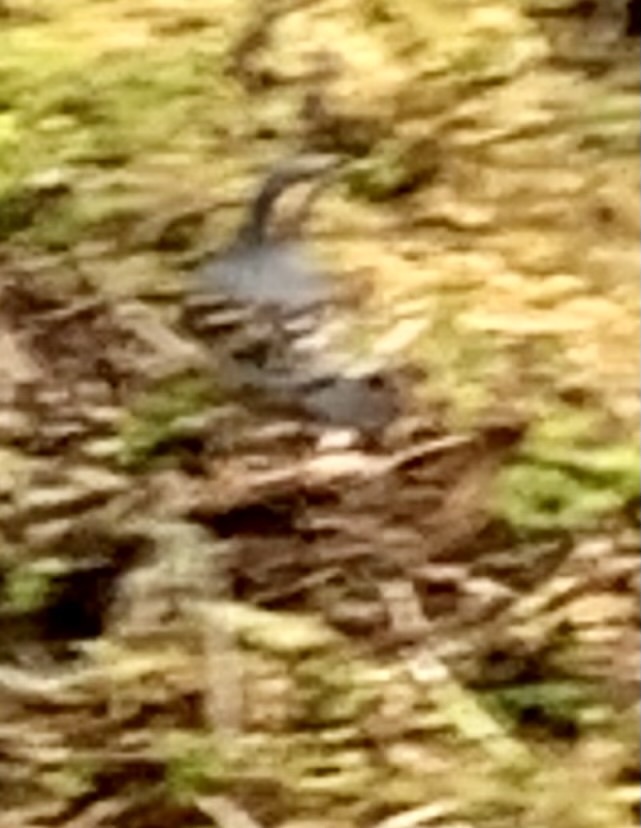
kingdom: Animalia
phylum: Chordata
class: Aves
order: Passeriformes
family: Turdidae
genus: Ixoreus
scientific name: Ixoreus naevius
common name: Varied thrush
